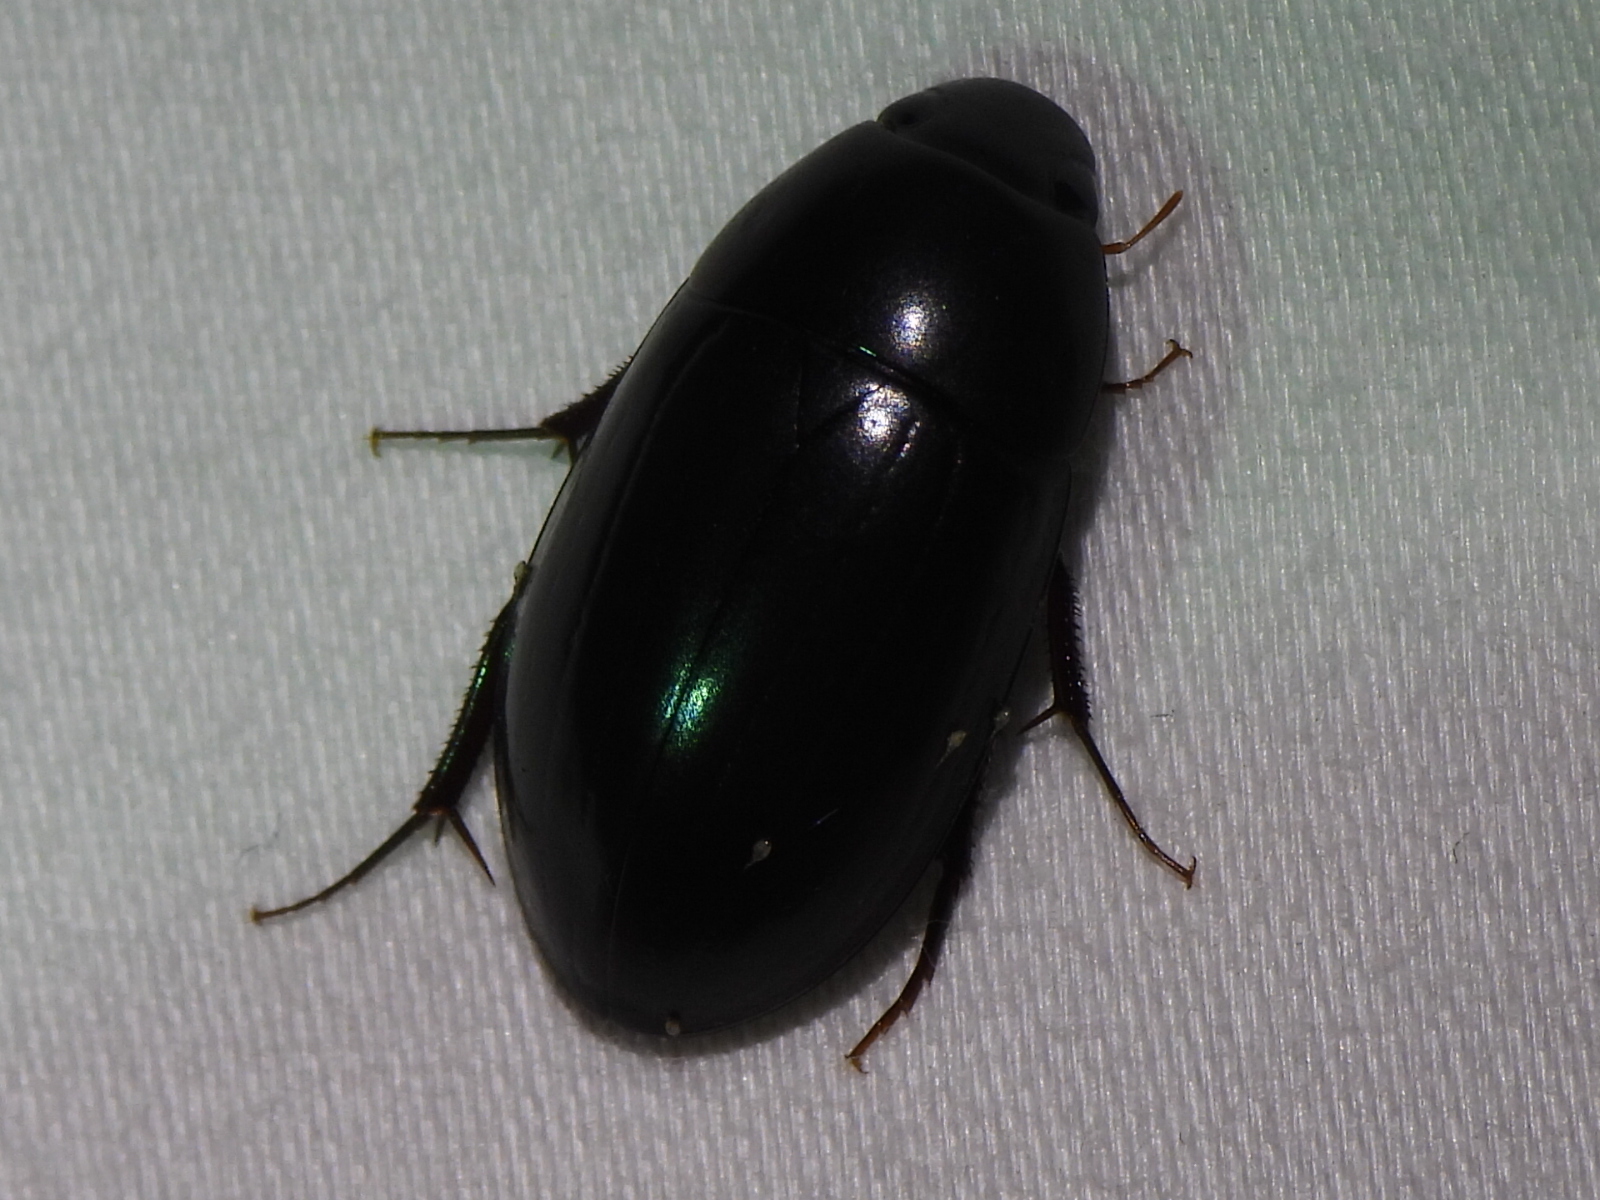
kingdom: Animalia
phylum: Arthropoda
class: Insecta
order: Coleoptera
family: Hydrophilidae
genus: Hydrobiomorpha
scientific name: Hydrobiomorpha casta
